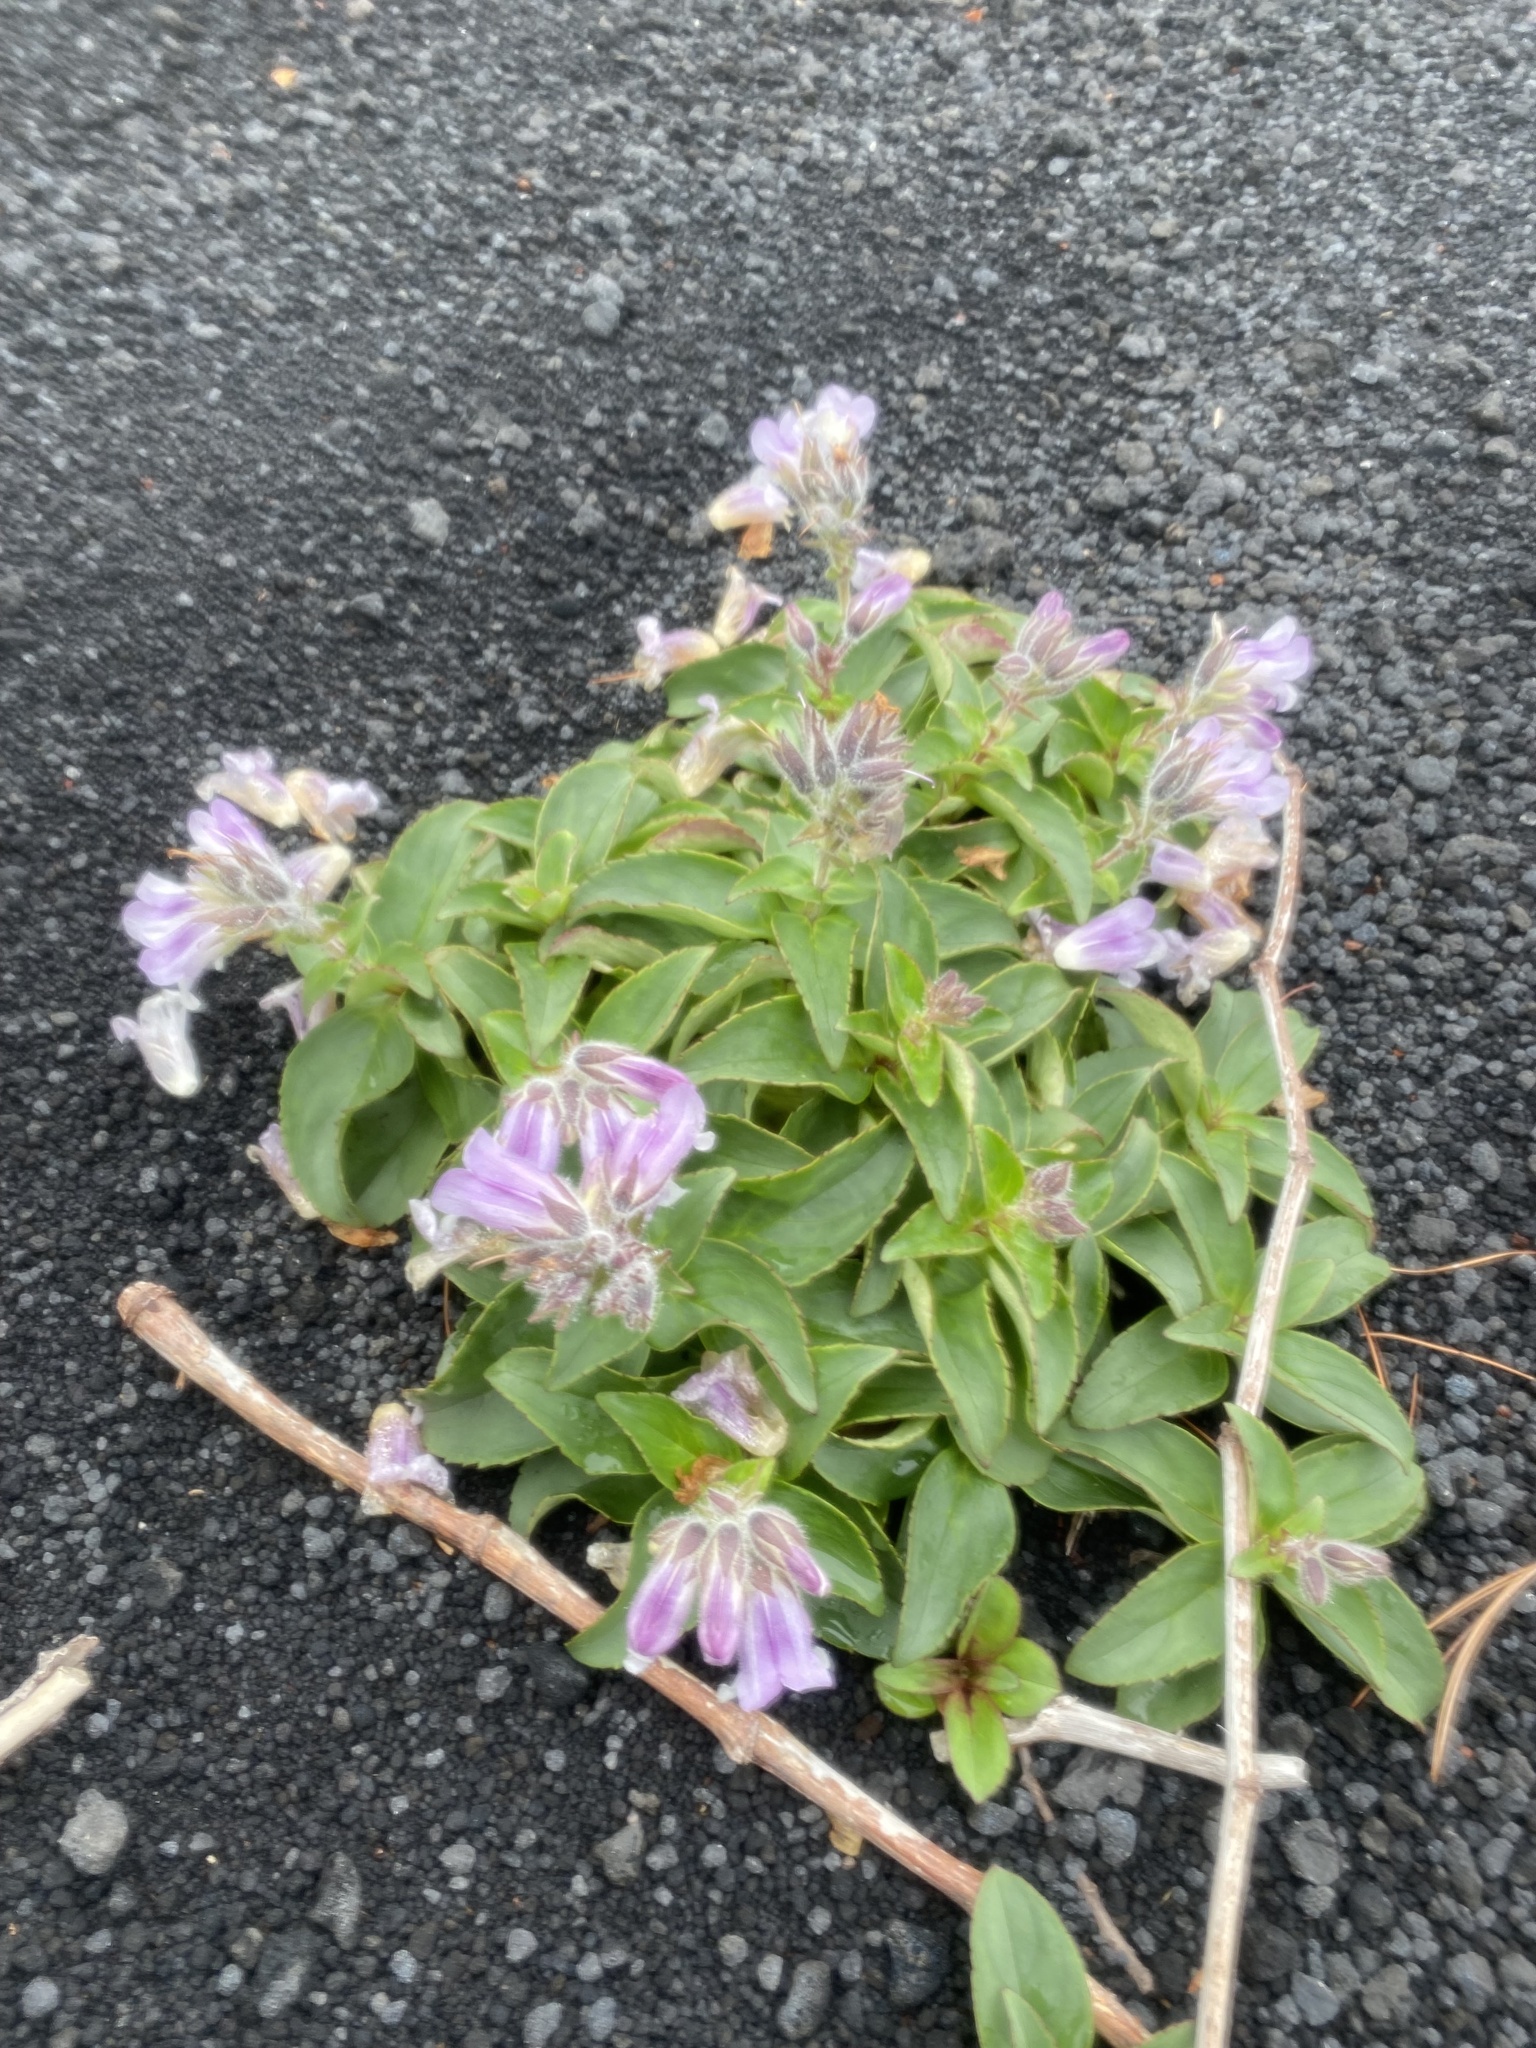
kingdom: Plantae
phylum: Tracheophyta
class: Magnoliopsida
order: Lamiales
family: Plantaginaceae
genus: Pennellianthus
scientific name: Pennellianthus frutescens
